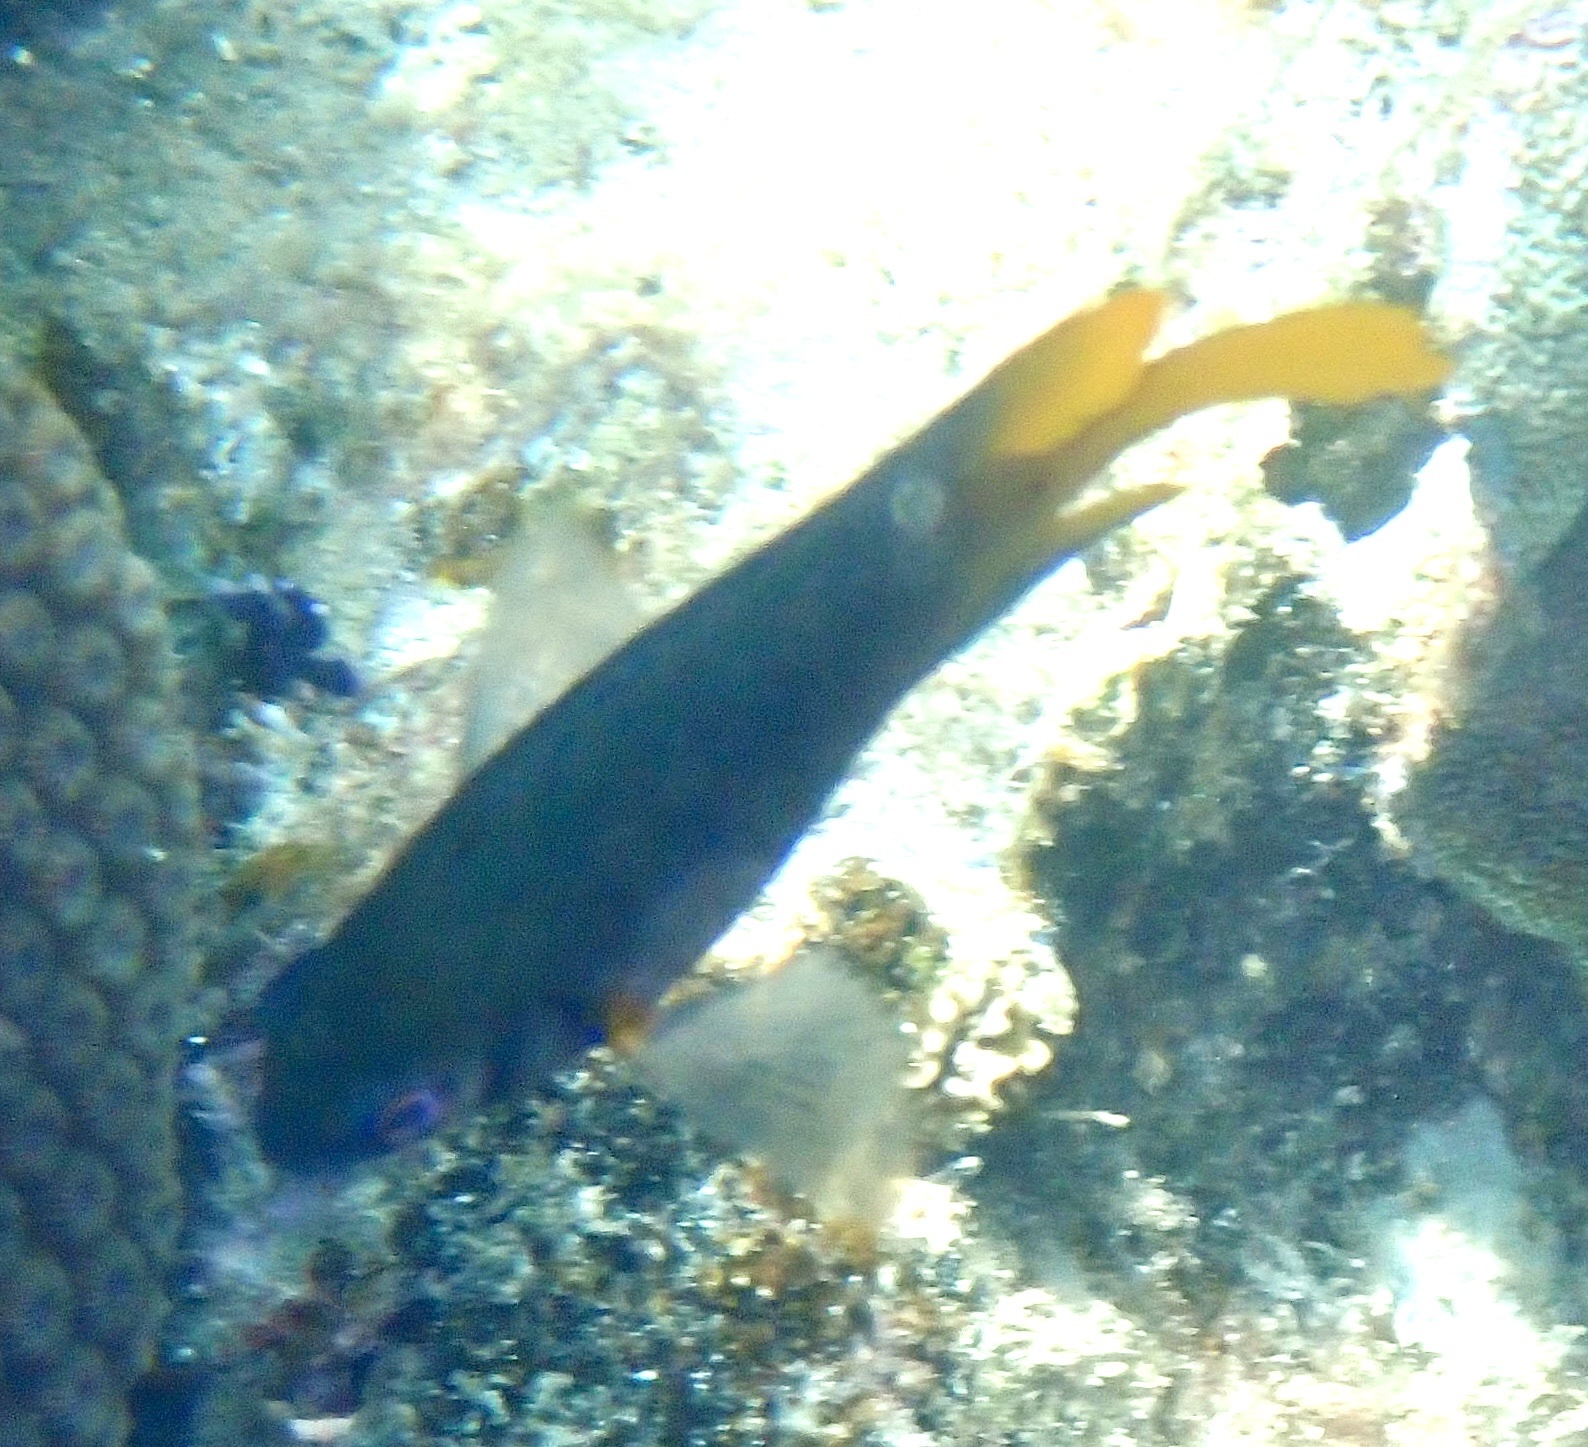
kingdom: Animalia
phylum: Chordata
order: Perciformes
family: Pomacentridae
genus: Neoglyphidodon
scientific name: Neoglyphidodon nigroris
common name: Behn's damsel
